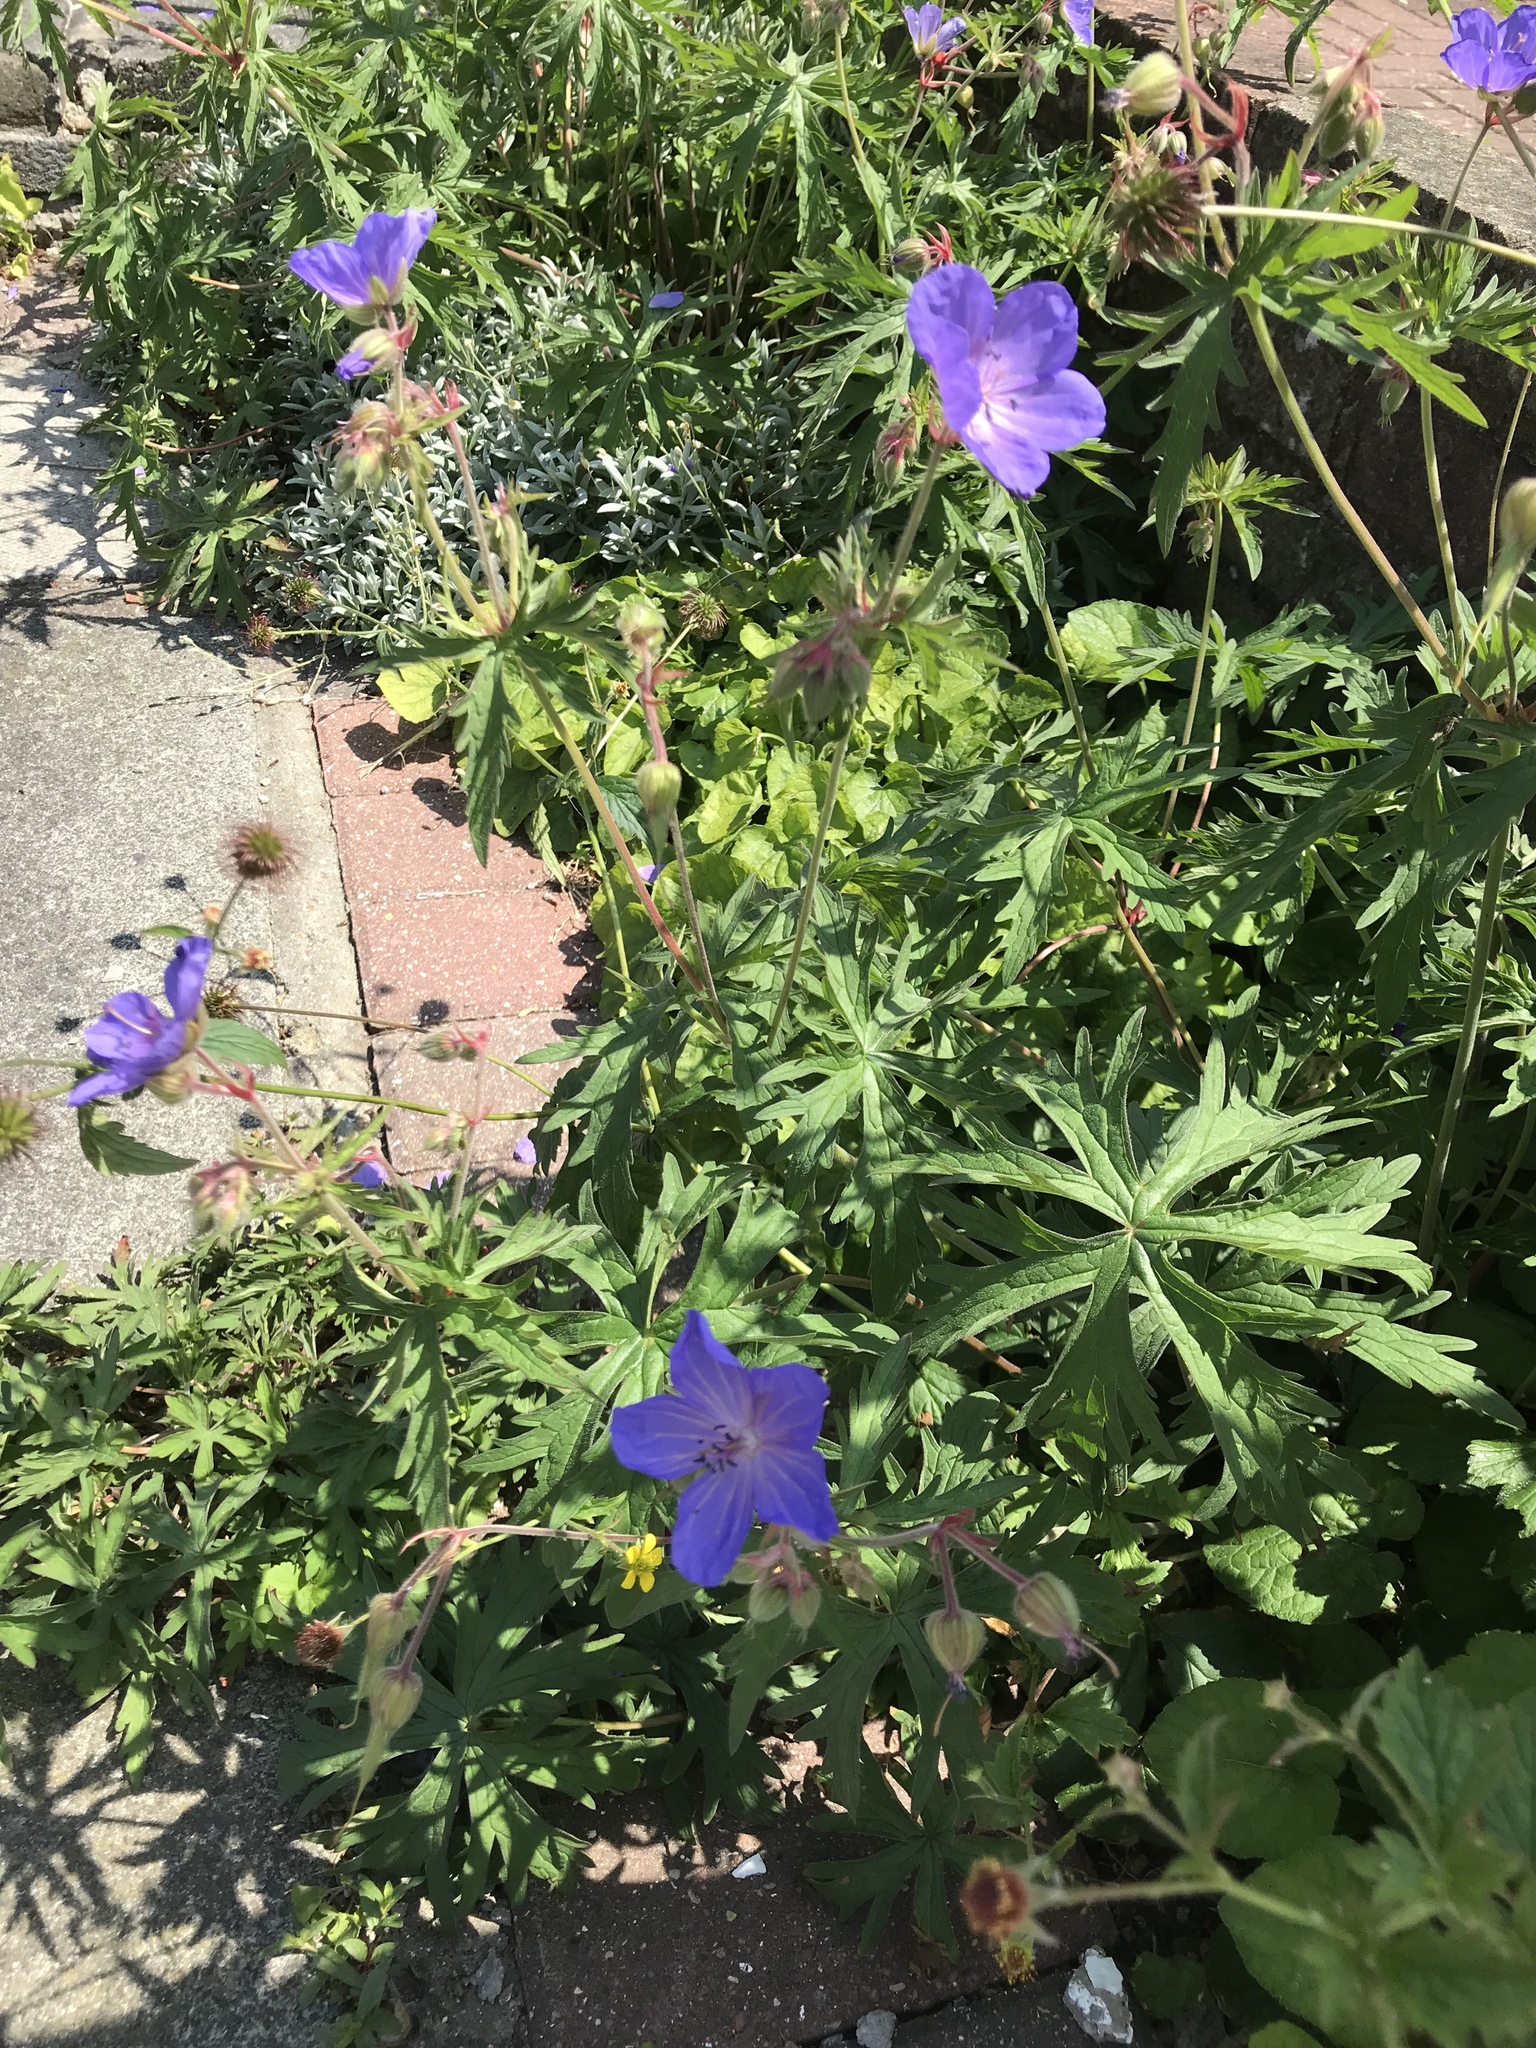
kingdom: Plantae
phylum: Tracheophyta
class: Magnoliopsida
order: Geraniales
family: Geraniaceae
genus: Geranium
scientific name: Geranium pratense
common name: Meadow crane's-bill
